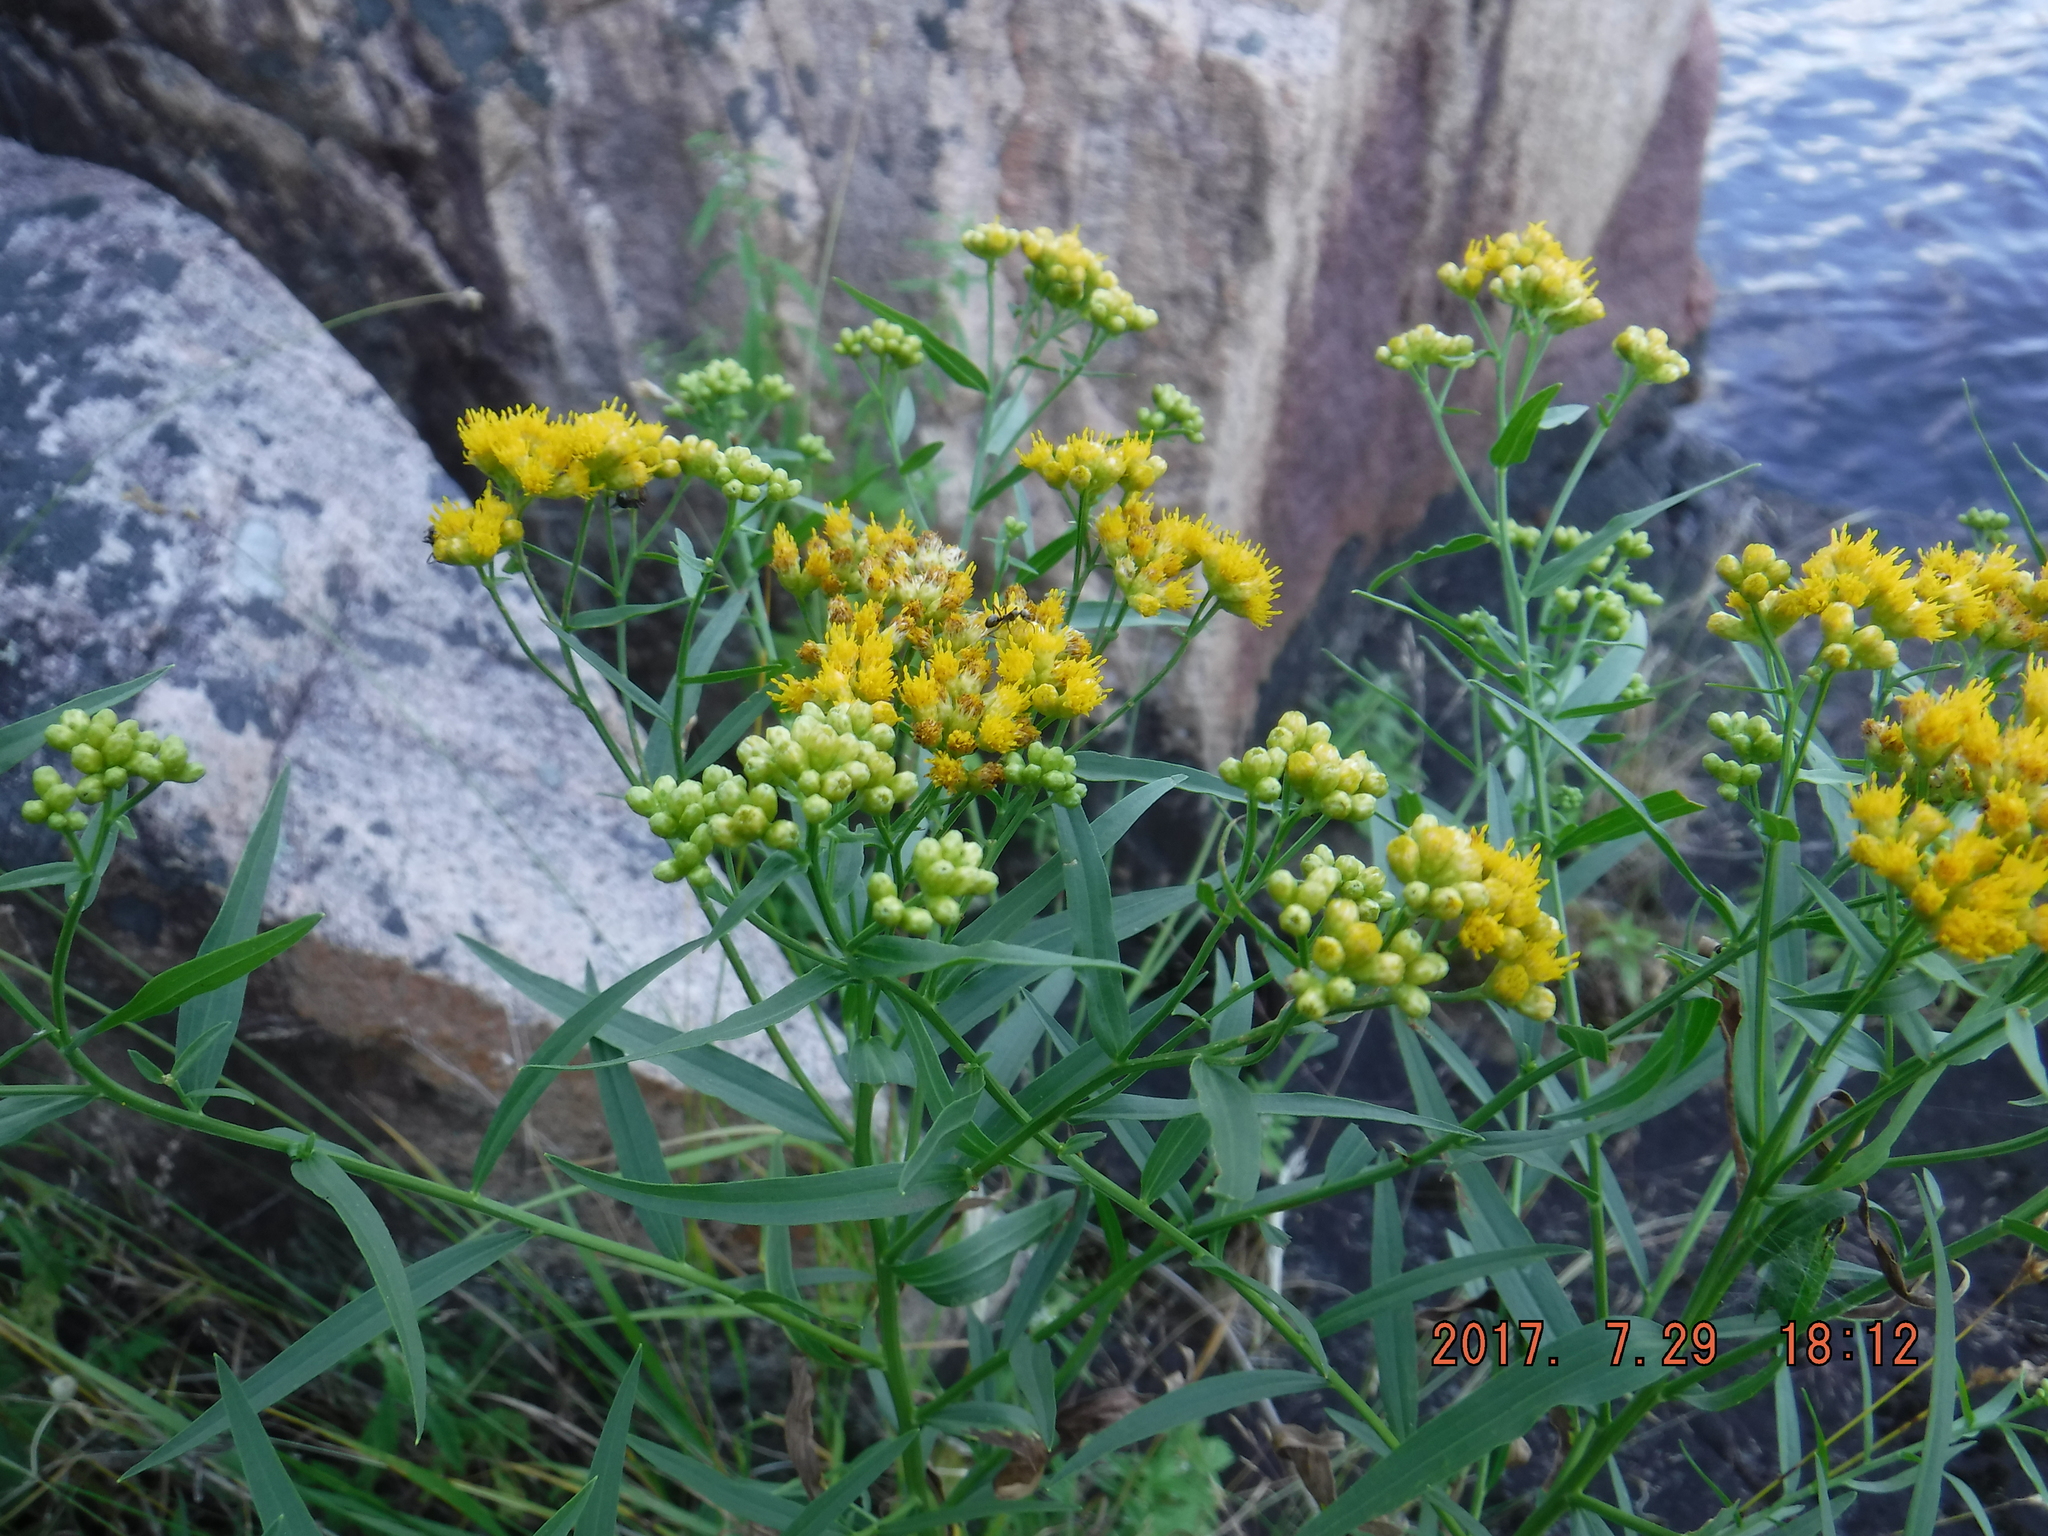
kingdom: Plantae
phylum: Tracheophyta
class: Magnoliopsida
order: Asterales
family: Asteraceae
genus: Euthamia
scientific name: Euthamia graminifolia
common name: Common goldentop
